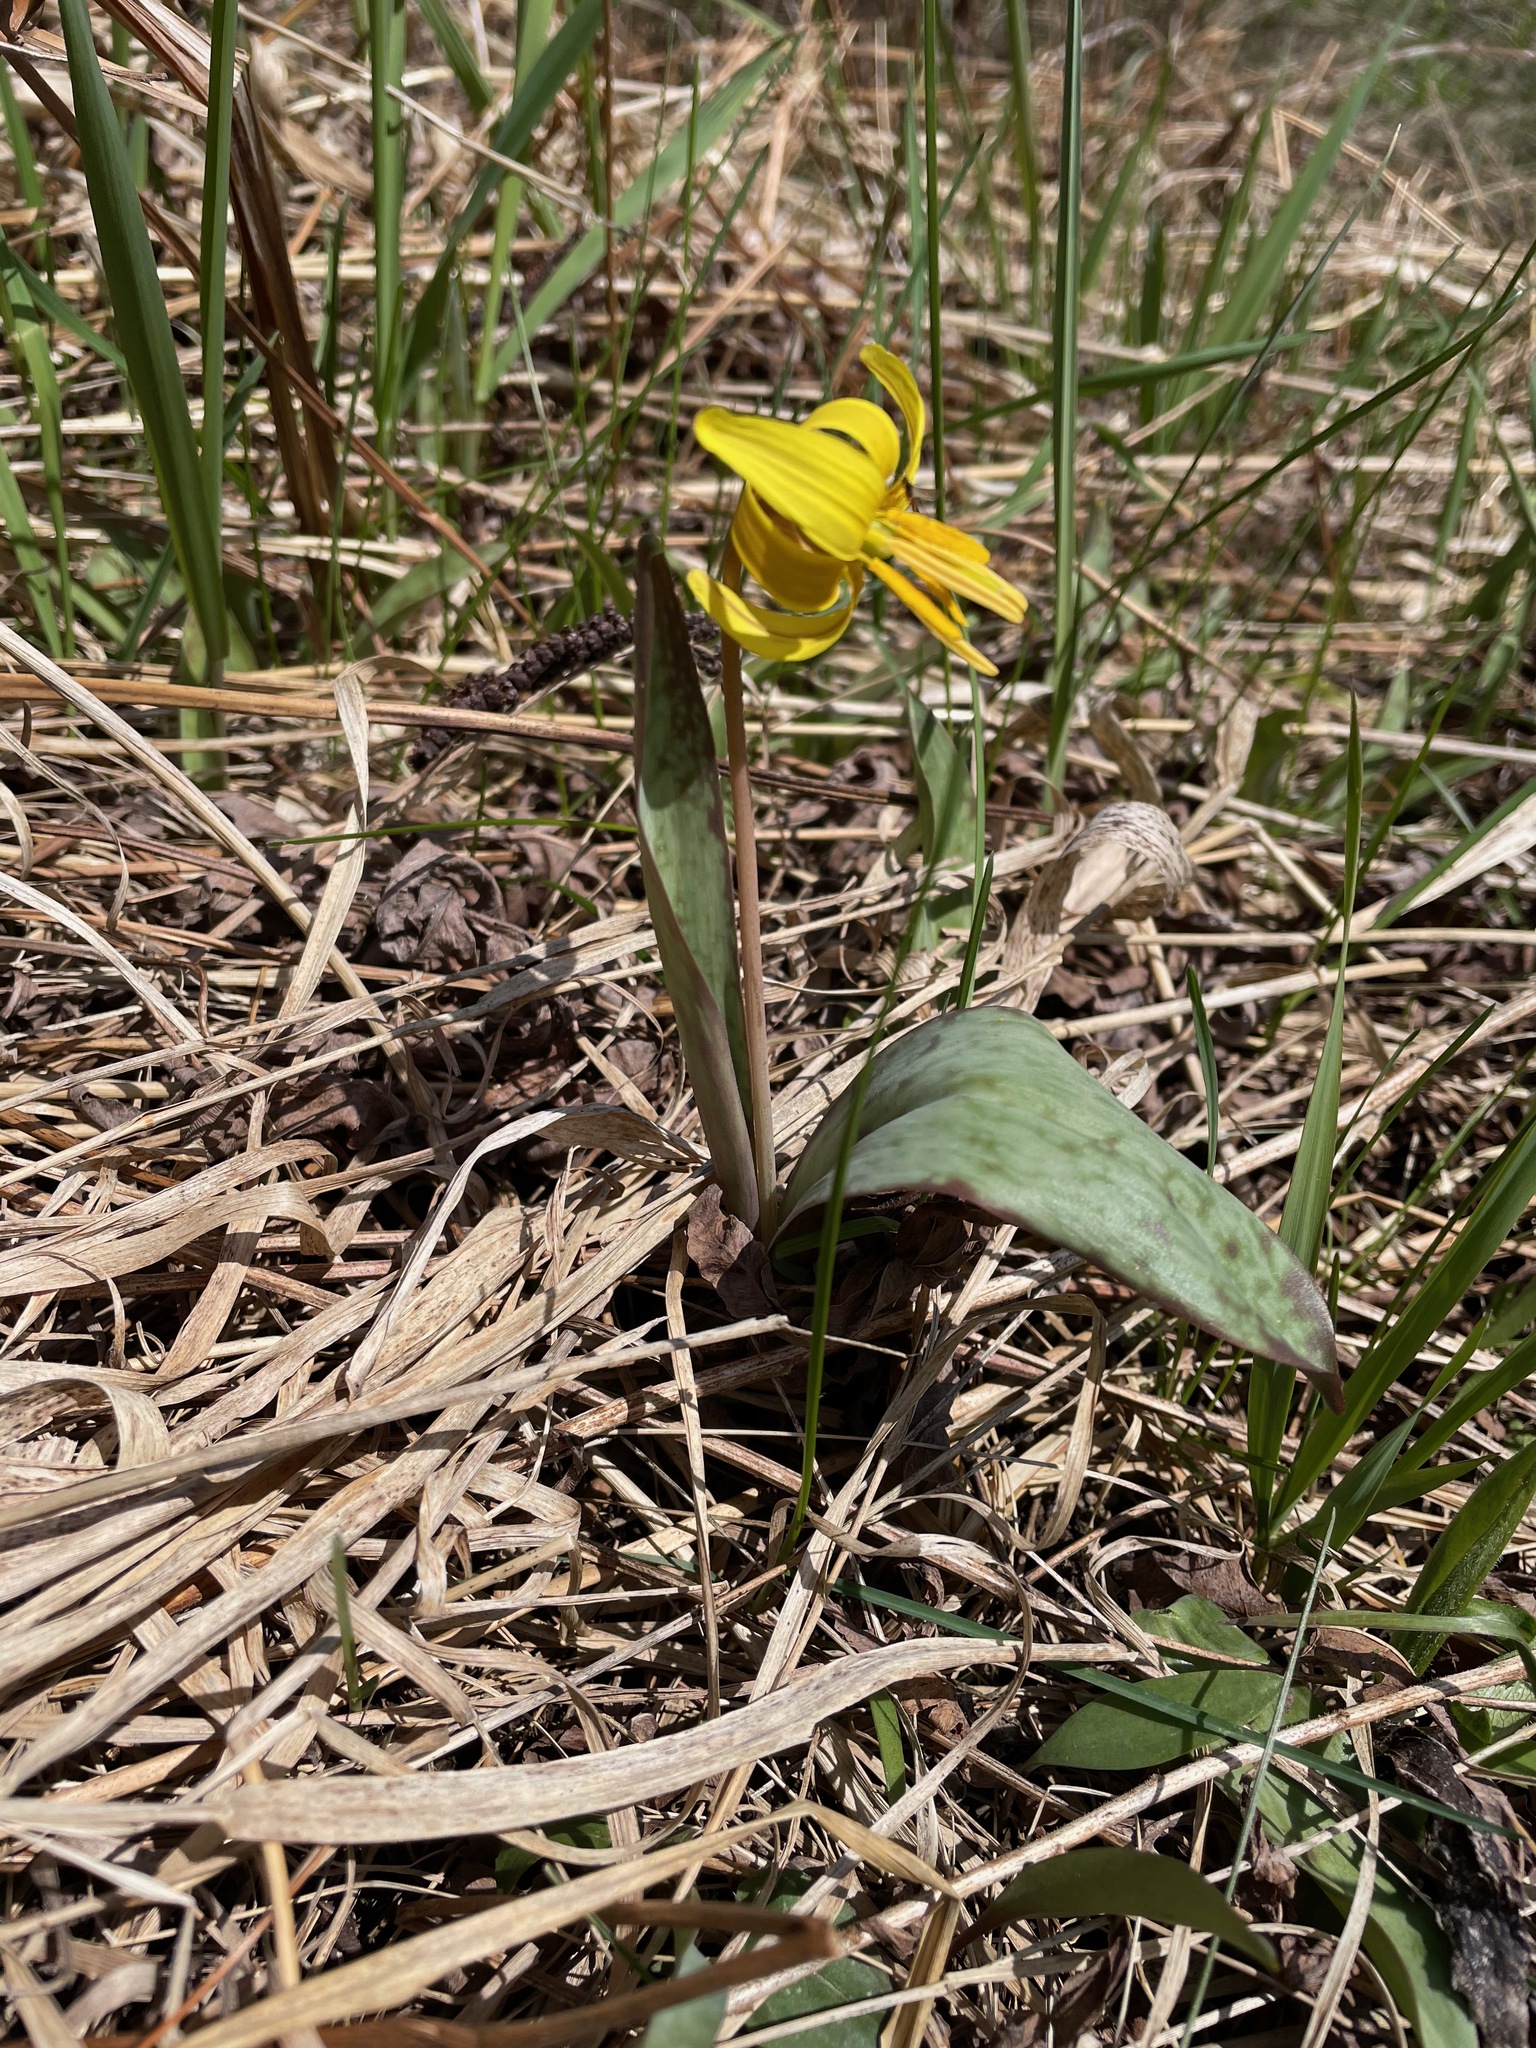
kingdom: Plantae
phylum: Tracheophyta
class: Liliopsida
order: Liliales
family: Liliaceae
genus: Erythronium
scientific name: Erythronium americanum
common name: Yellow adder's-tongue
